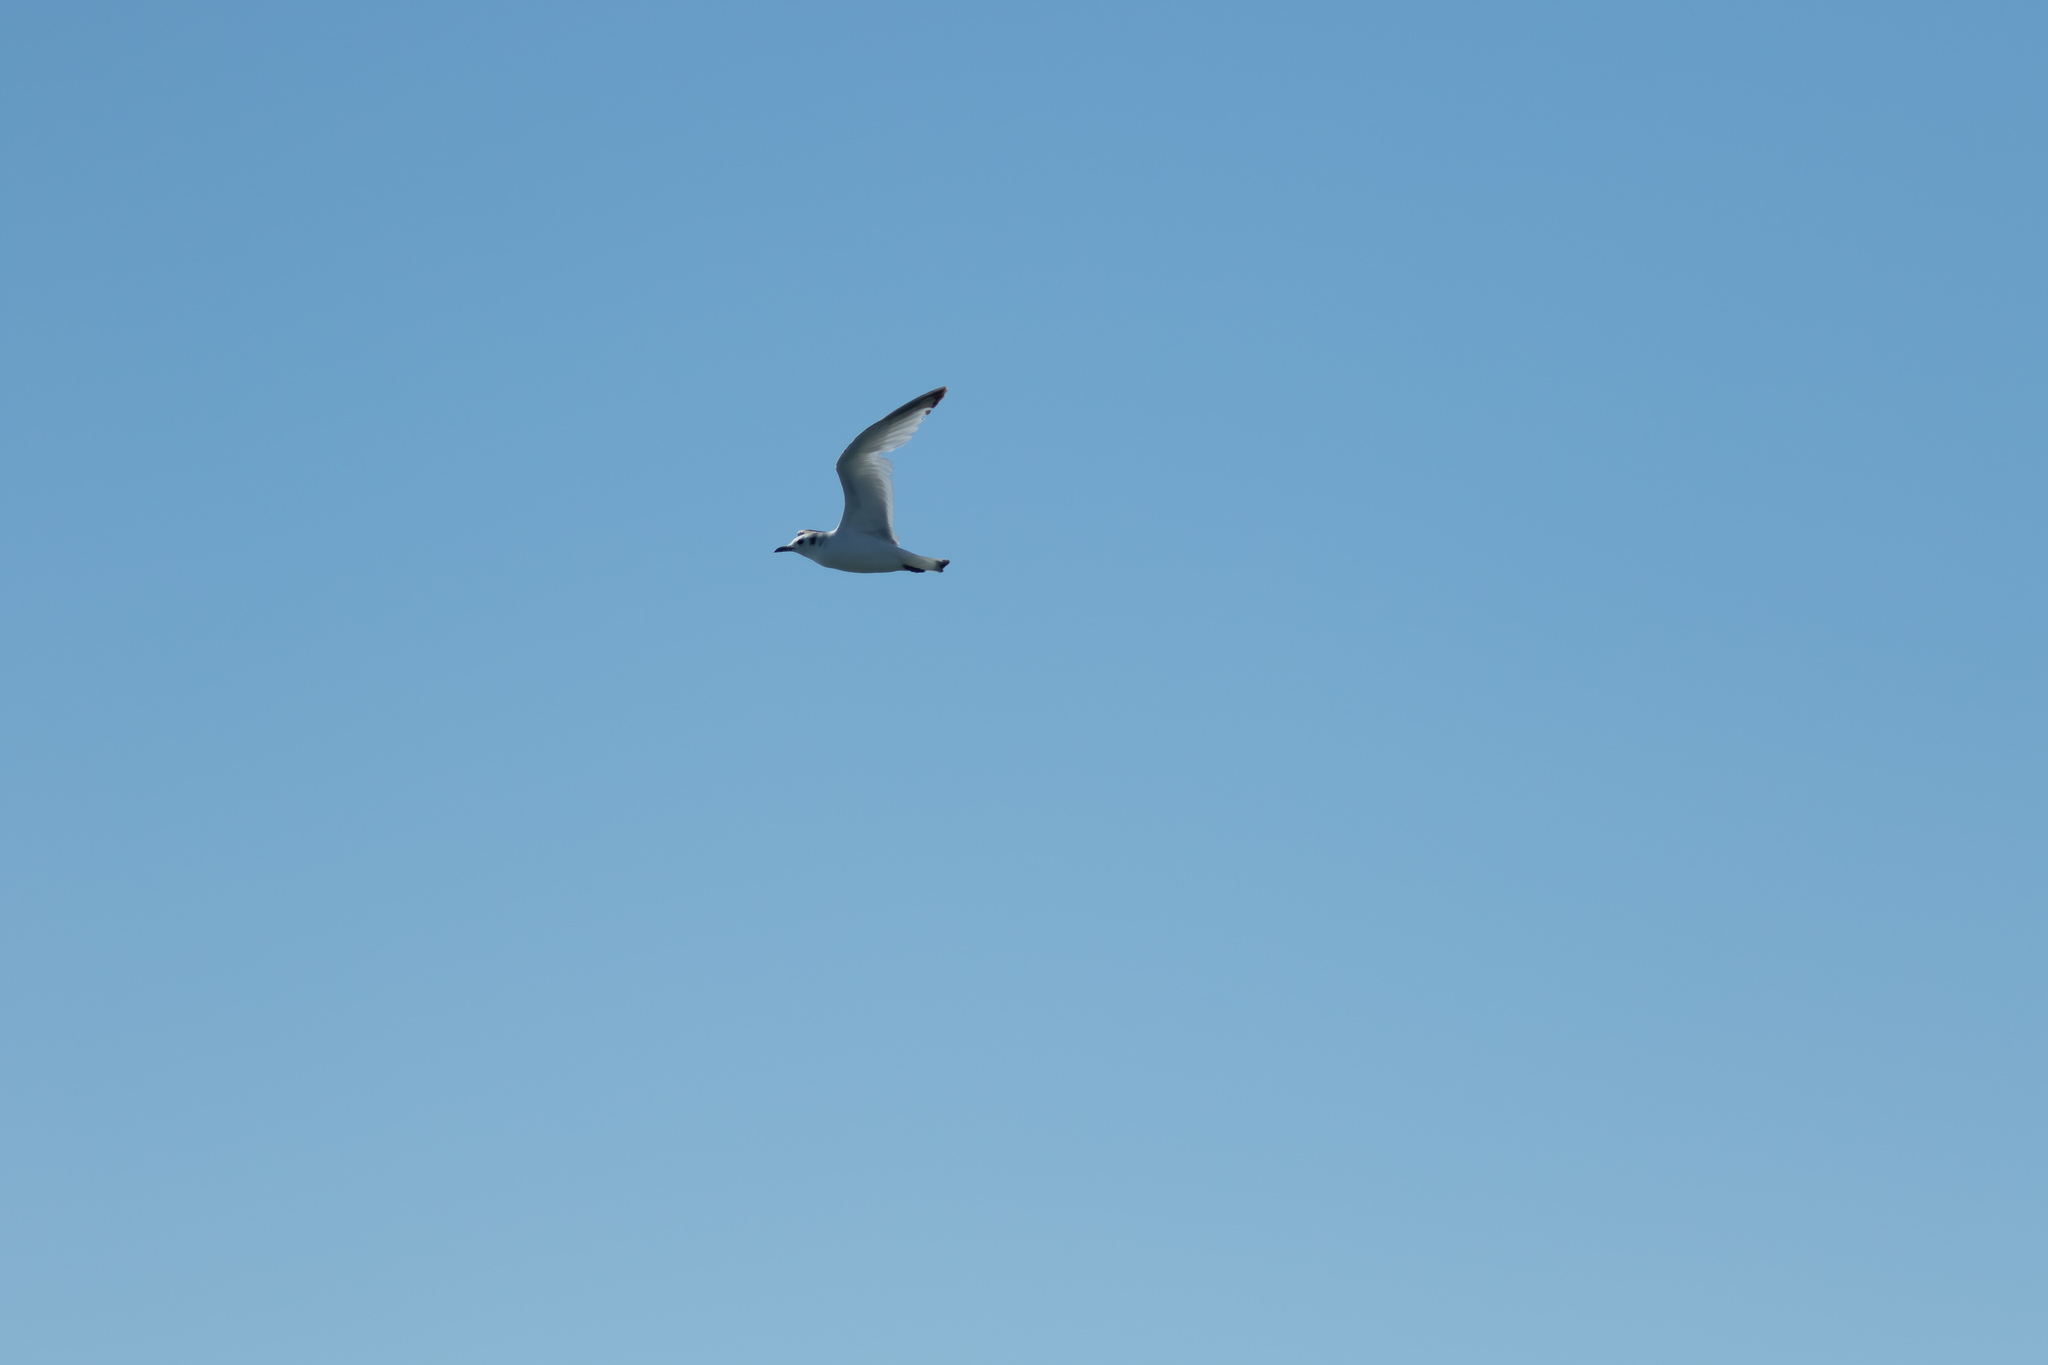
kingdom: Animalia
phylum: Chordata
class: Aves
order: Charadriiformes
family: Laridae
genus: Rissa
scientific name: Rissa tridactyla
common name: Black-legged kittiwake
